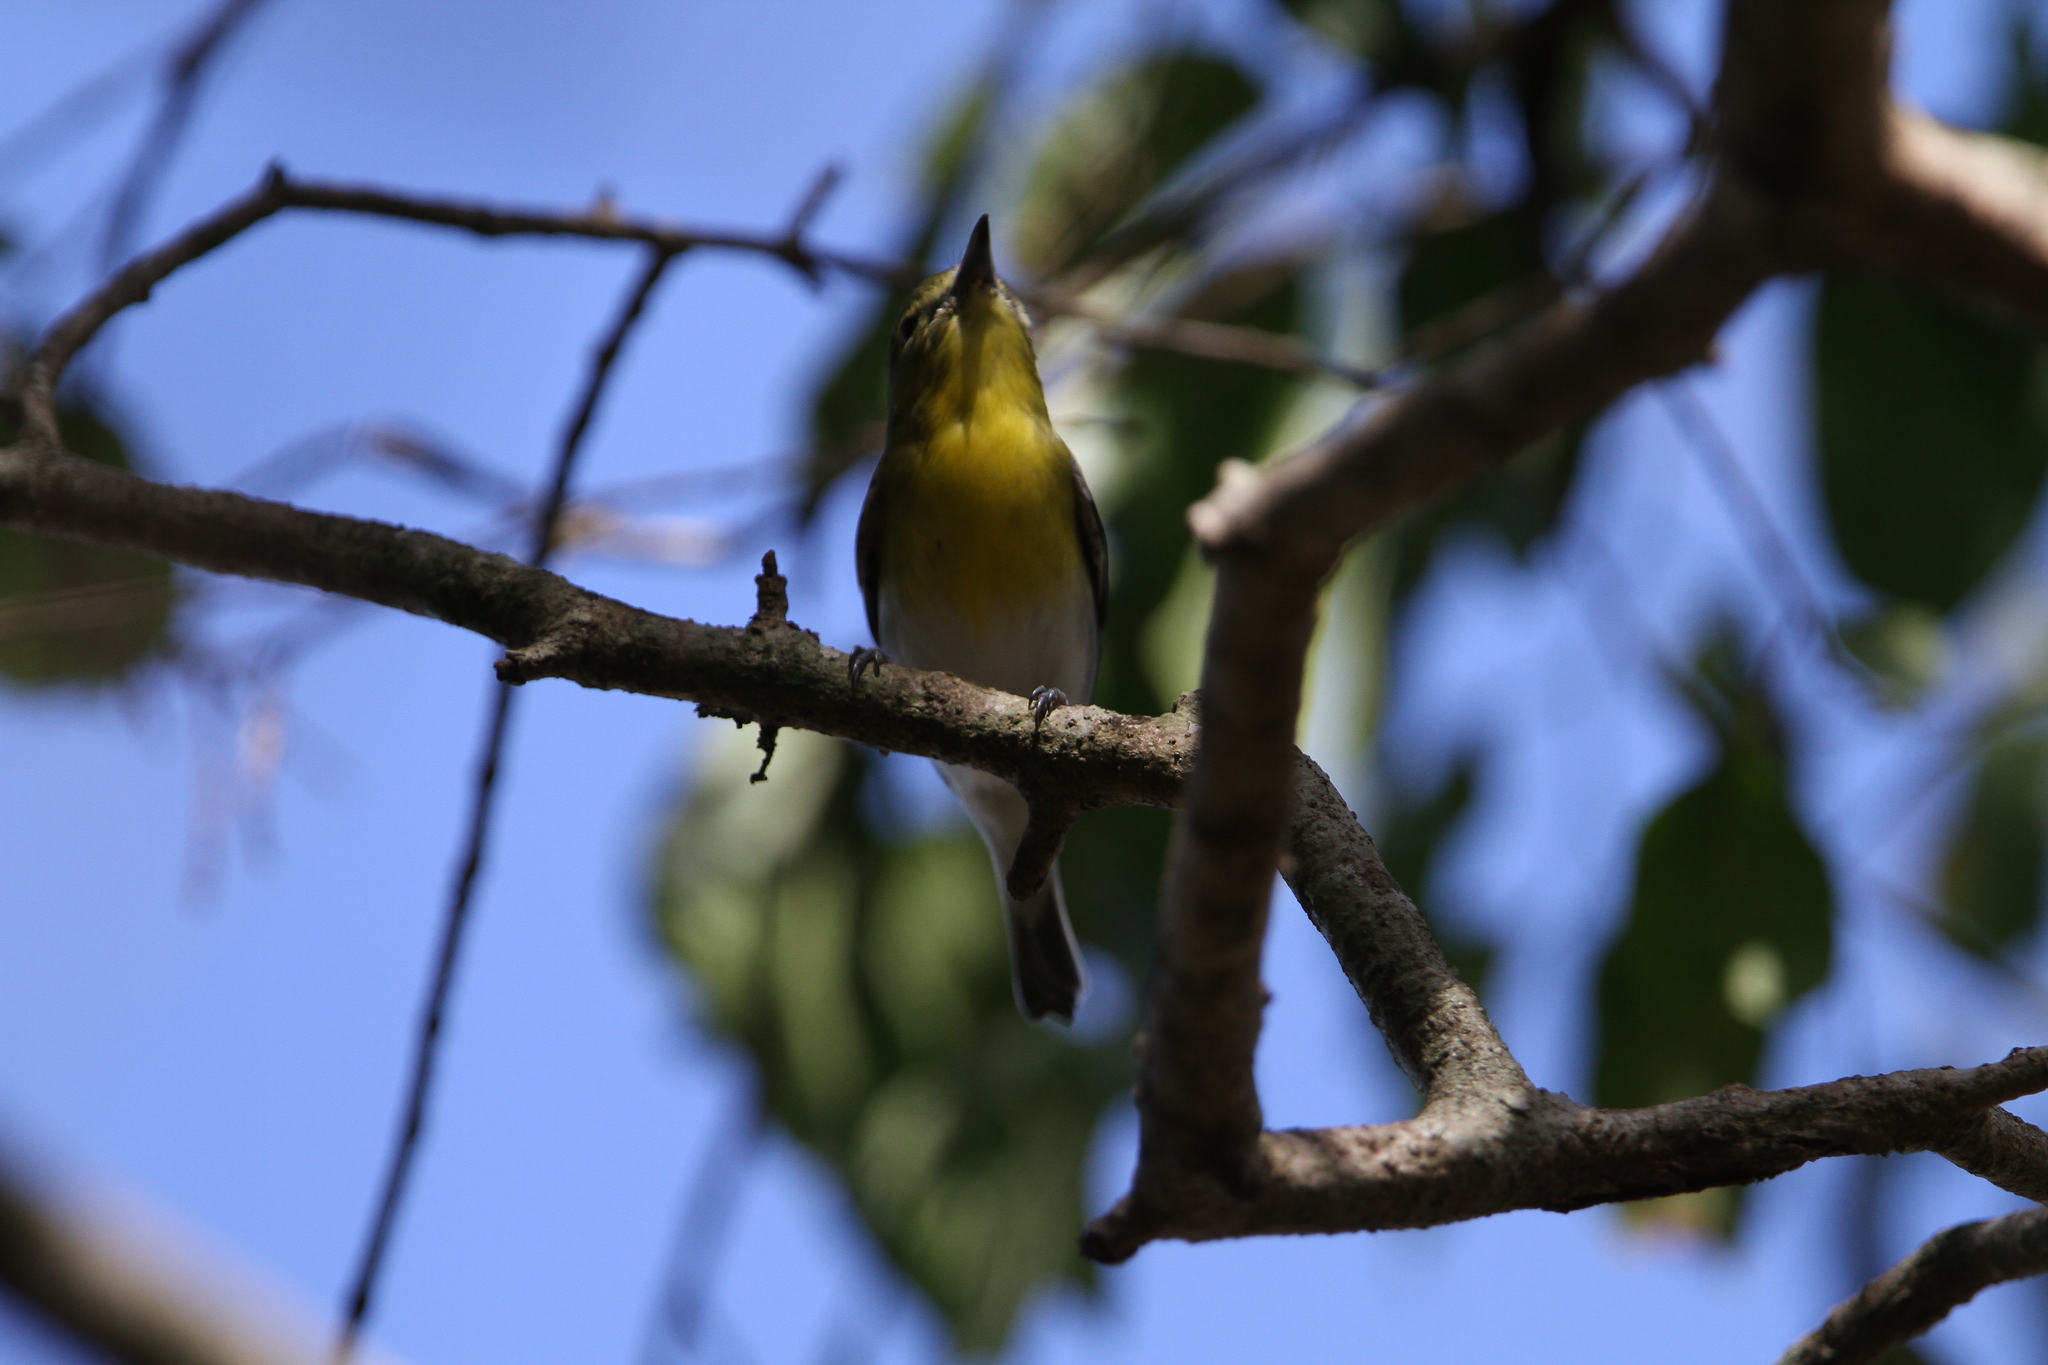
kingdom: Animalia
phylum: Chordata
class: Aves
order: Passeriformes
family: Vireonidae
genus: Vireo
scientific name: Vireo flavifrons
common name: Yellow-throated vireo
